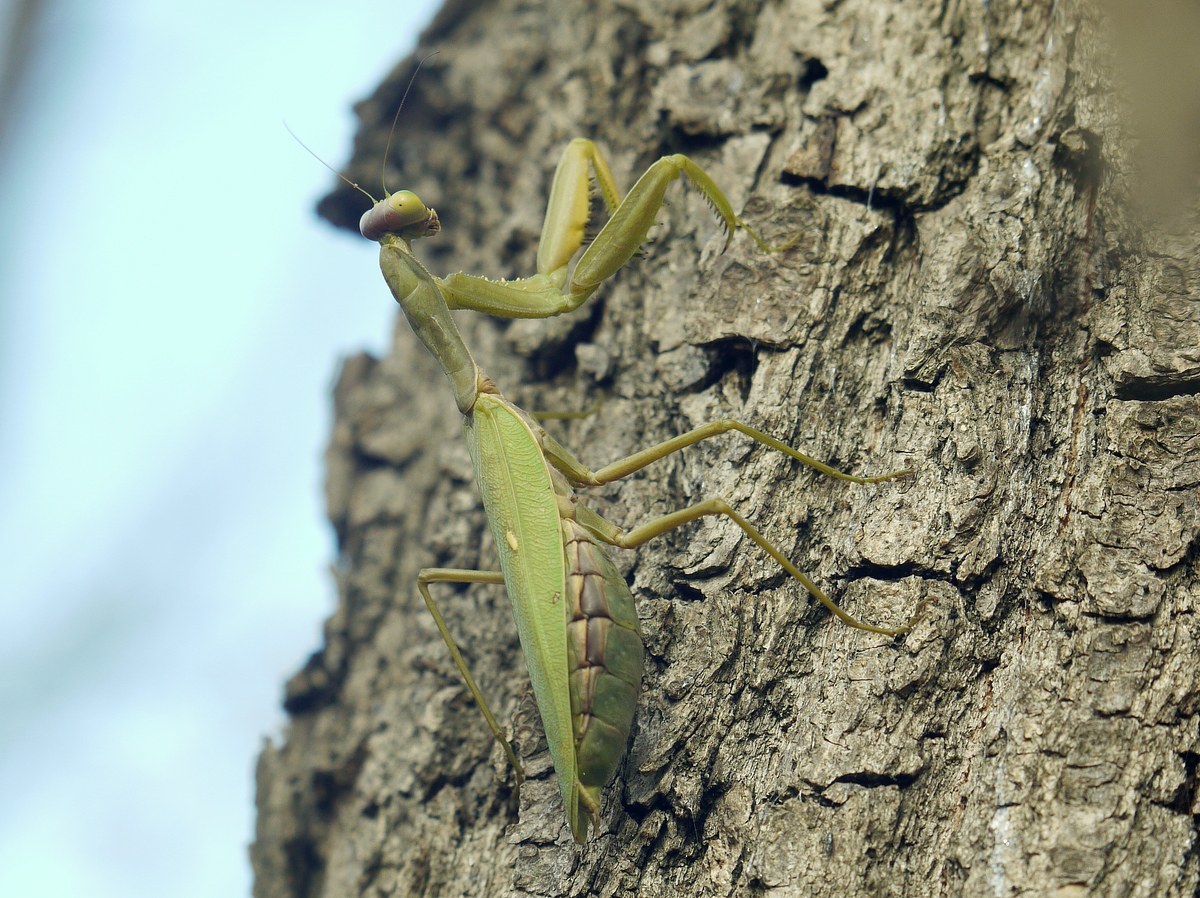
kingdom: Animalia
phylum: Arthropoda
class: Insecta
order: Mantodea
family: Mantidae
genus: Hierodula
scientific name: Hierodula transcaucasica
